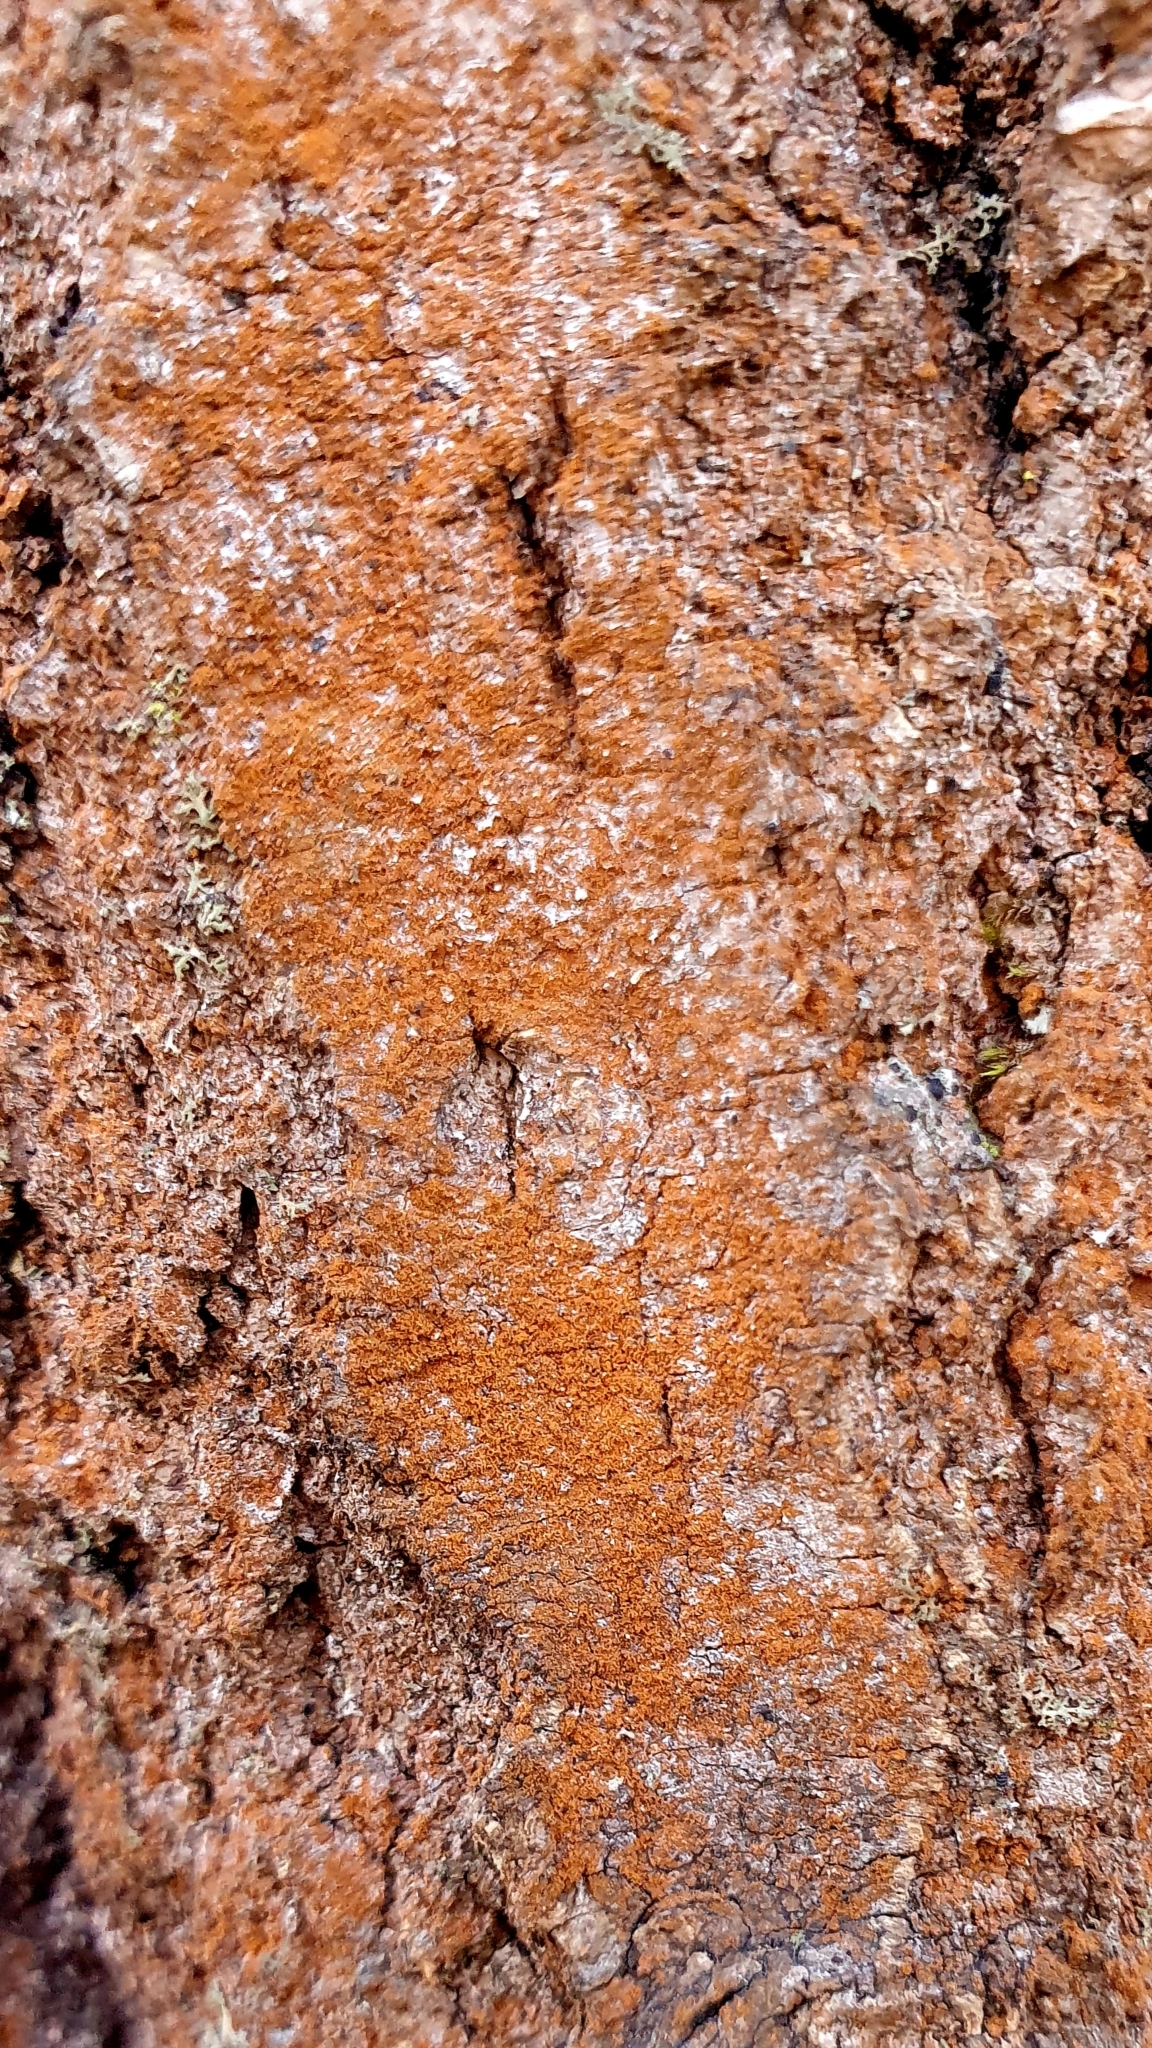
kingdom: Plantae
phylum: Chlorophyta
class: Ulvophyceae
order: Trentepohliales
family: Trentepohliaceae
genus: Trentepohlia
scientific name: Trentepohlia
